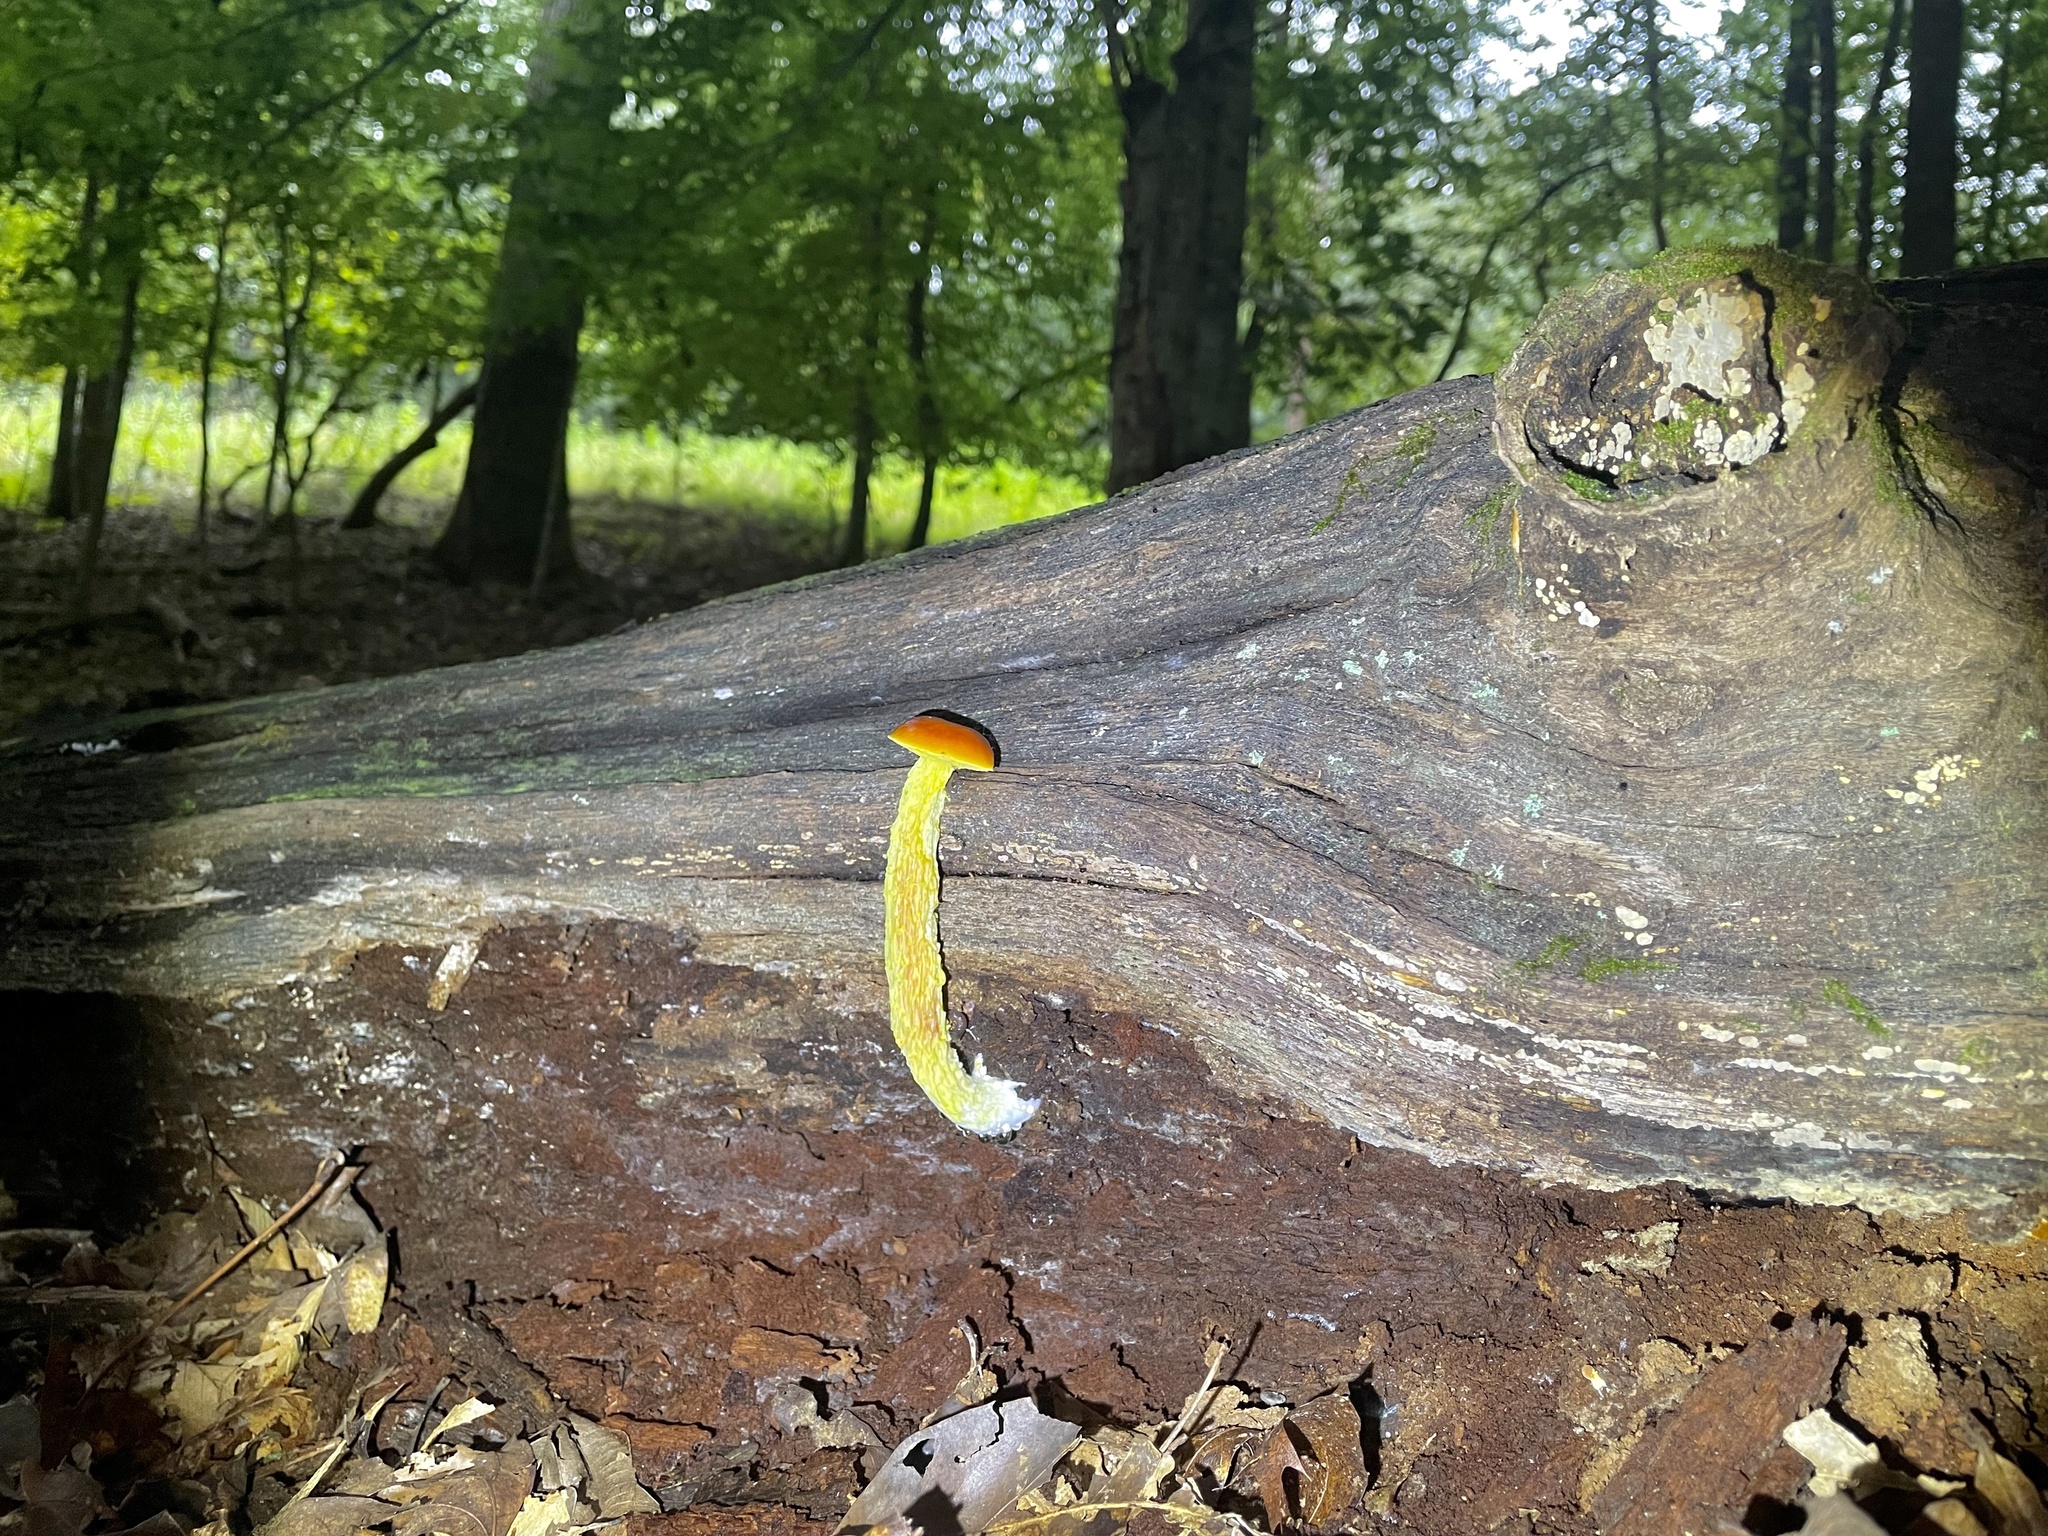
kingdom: Fungi
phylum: Basidiomycota
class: Agaricomycetes
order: Boletales
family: Boletaceae
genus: Aureoboletus
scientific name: Aureoboletus betula
